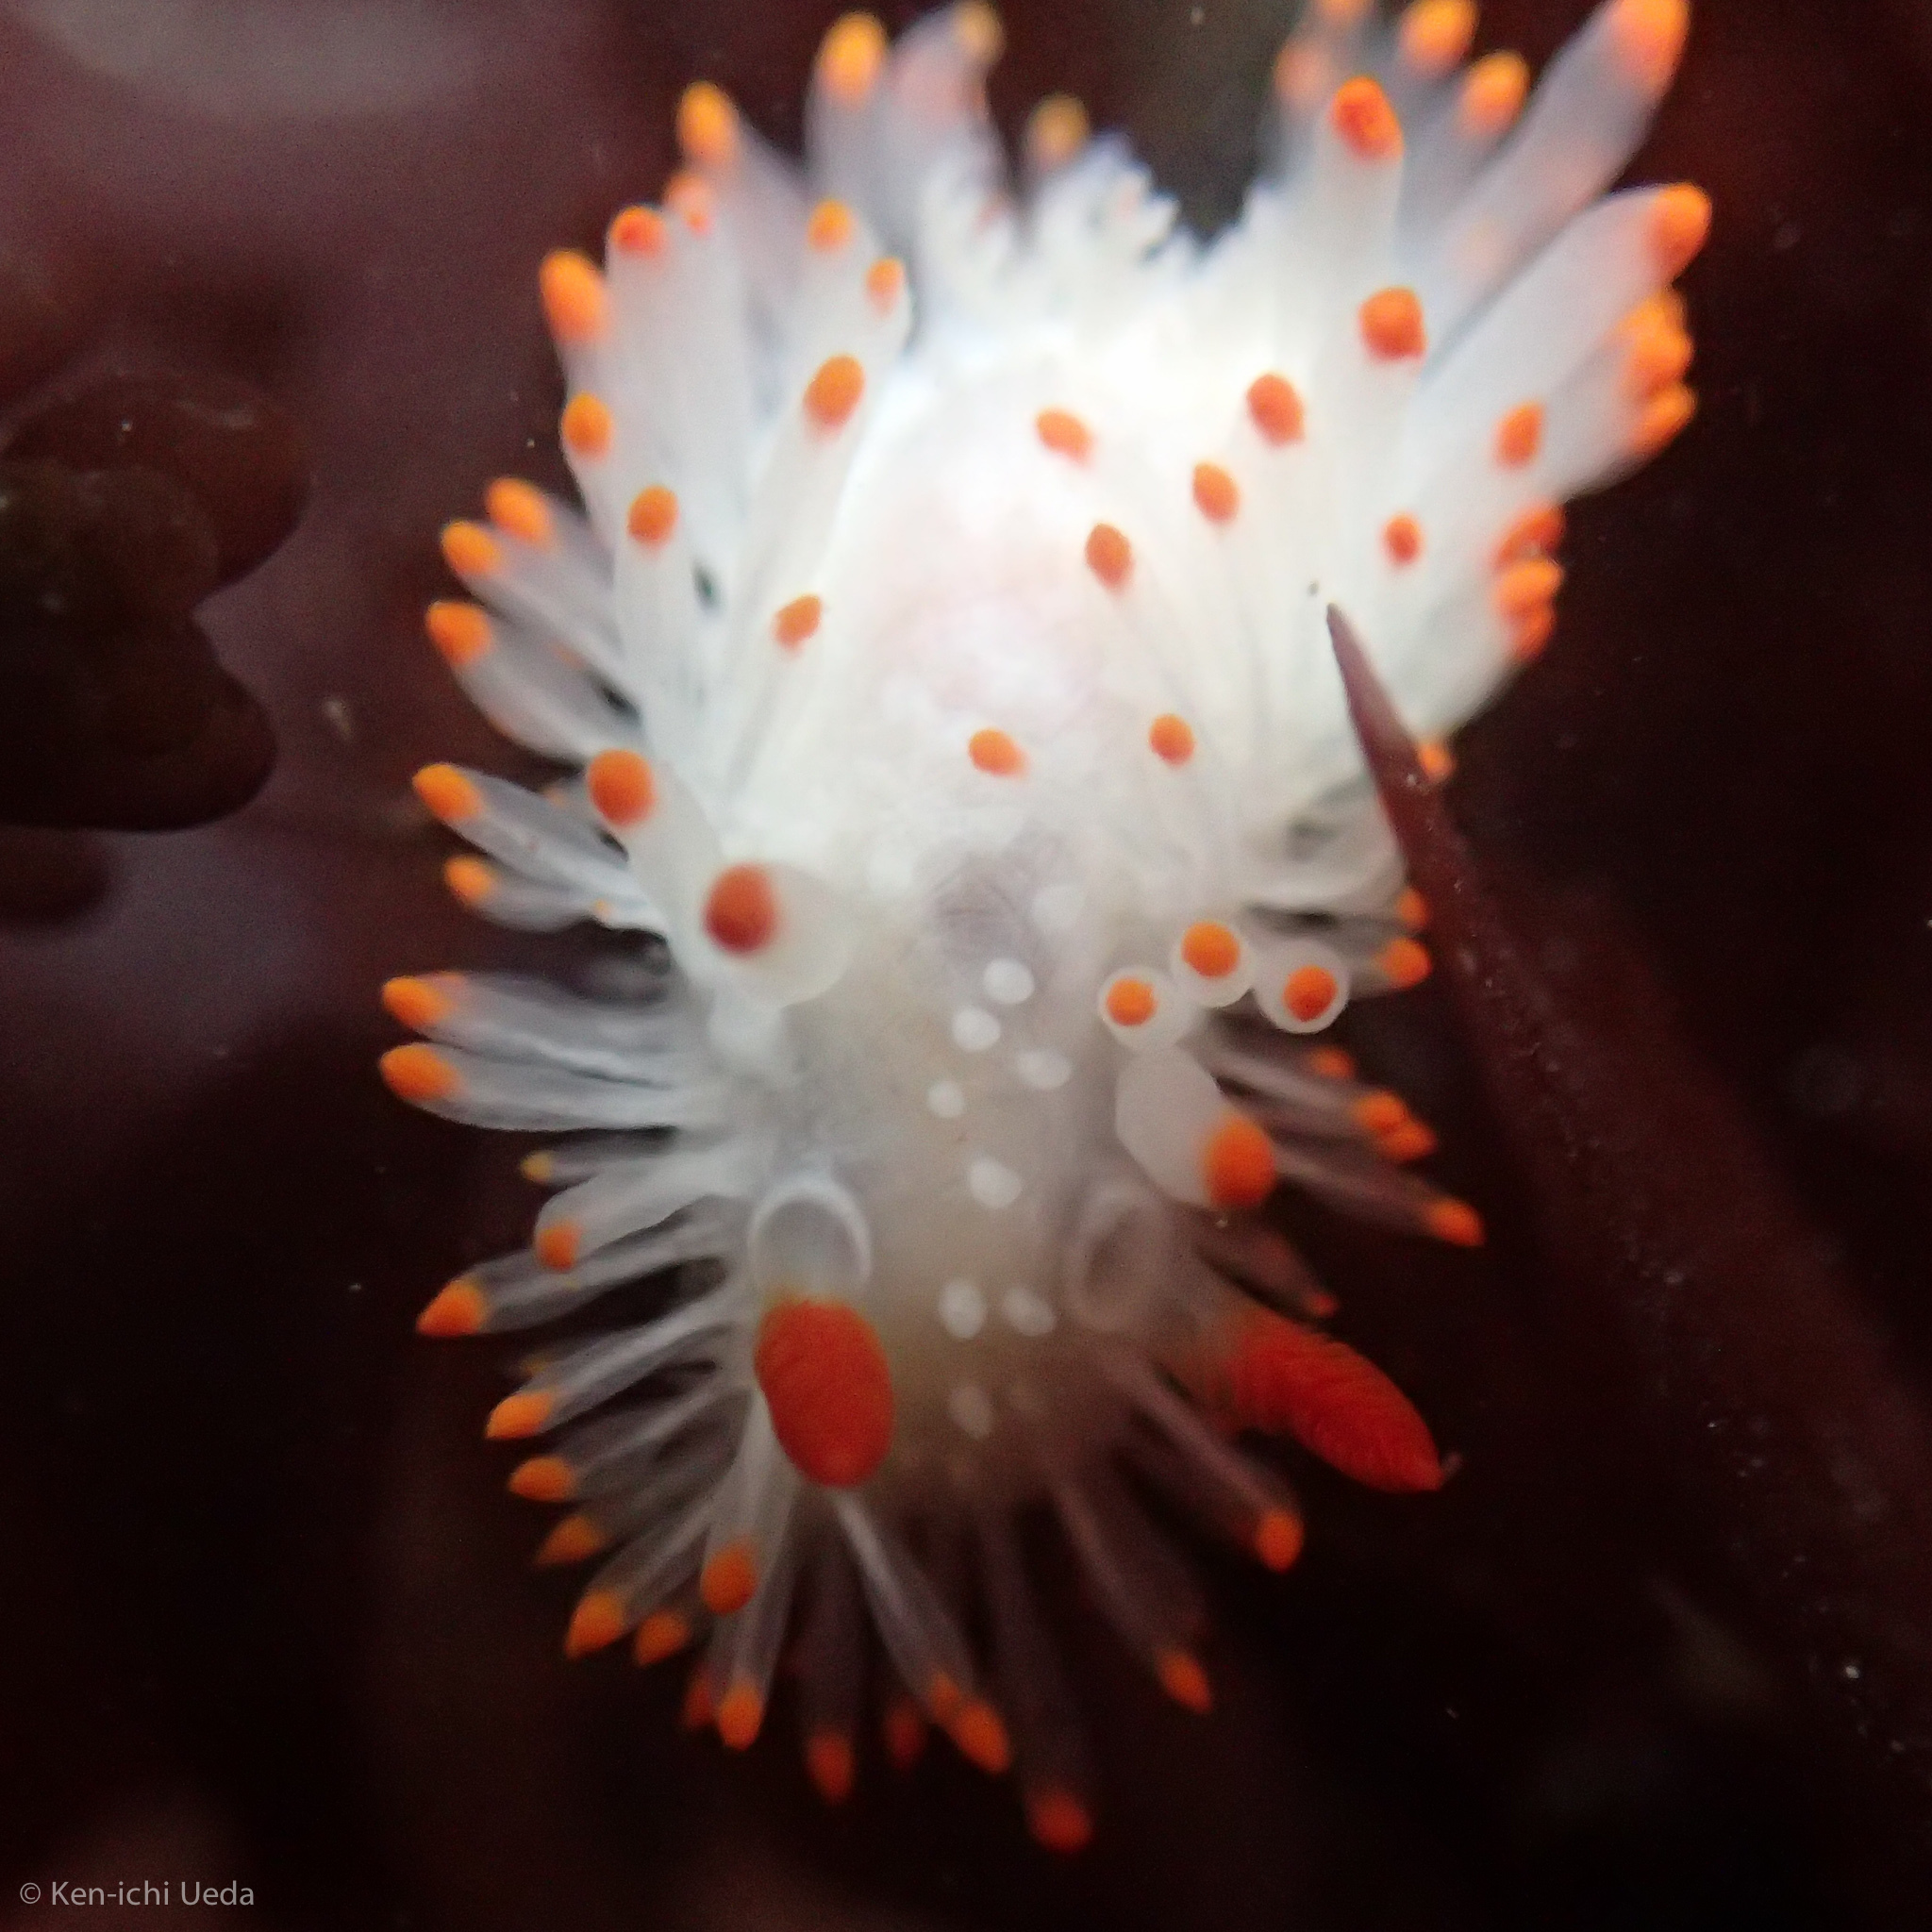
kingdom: Animalia
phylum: Mollusca
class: Gastropoda
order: Nudibranchia
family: Polyceridae
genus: Limacia
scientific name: Limacia cockerelli
